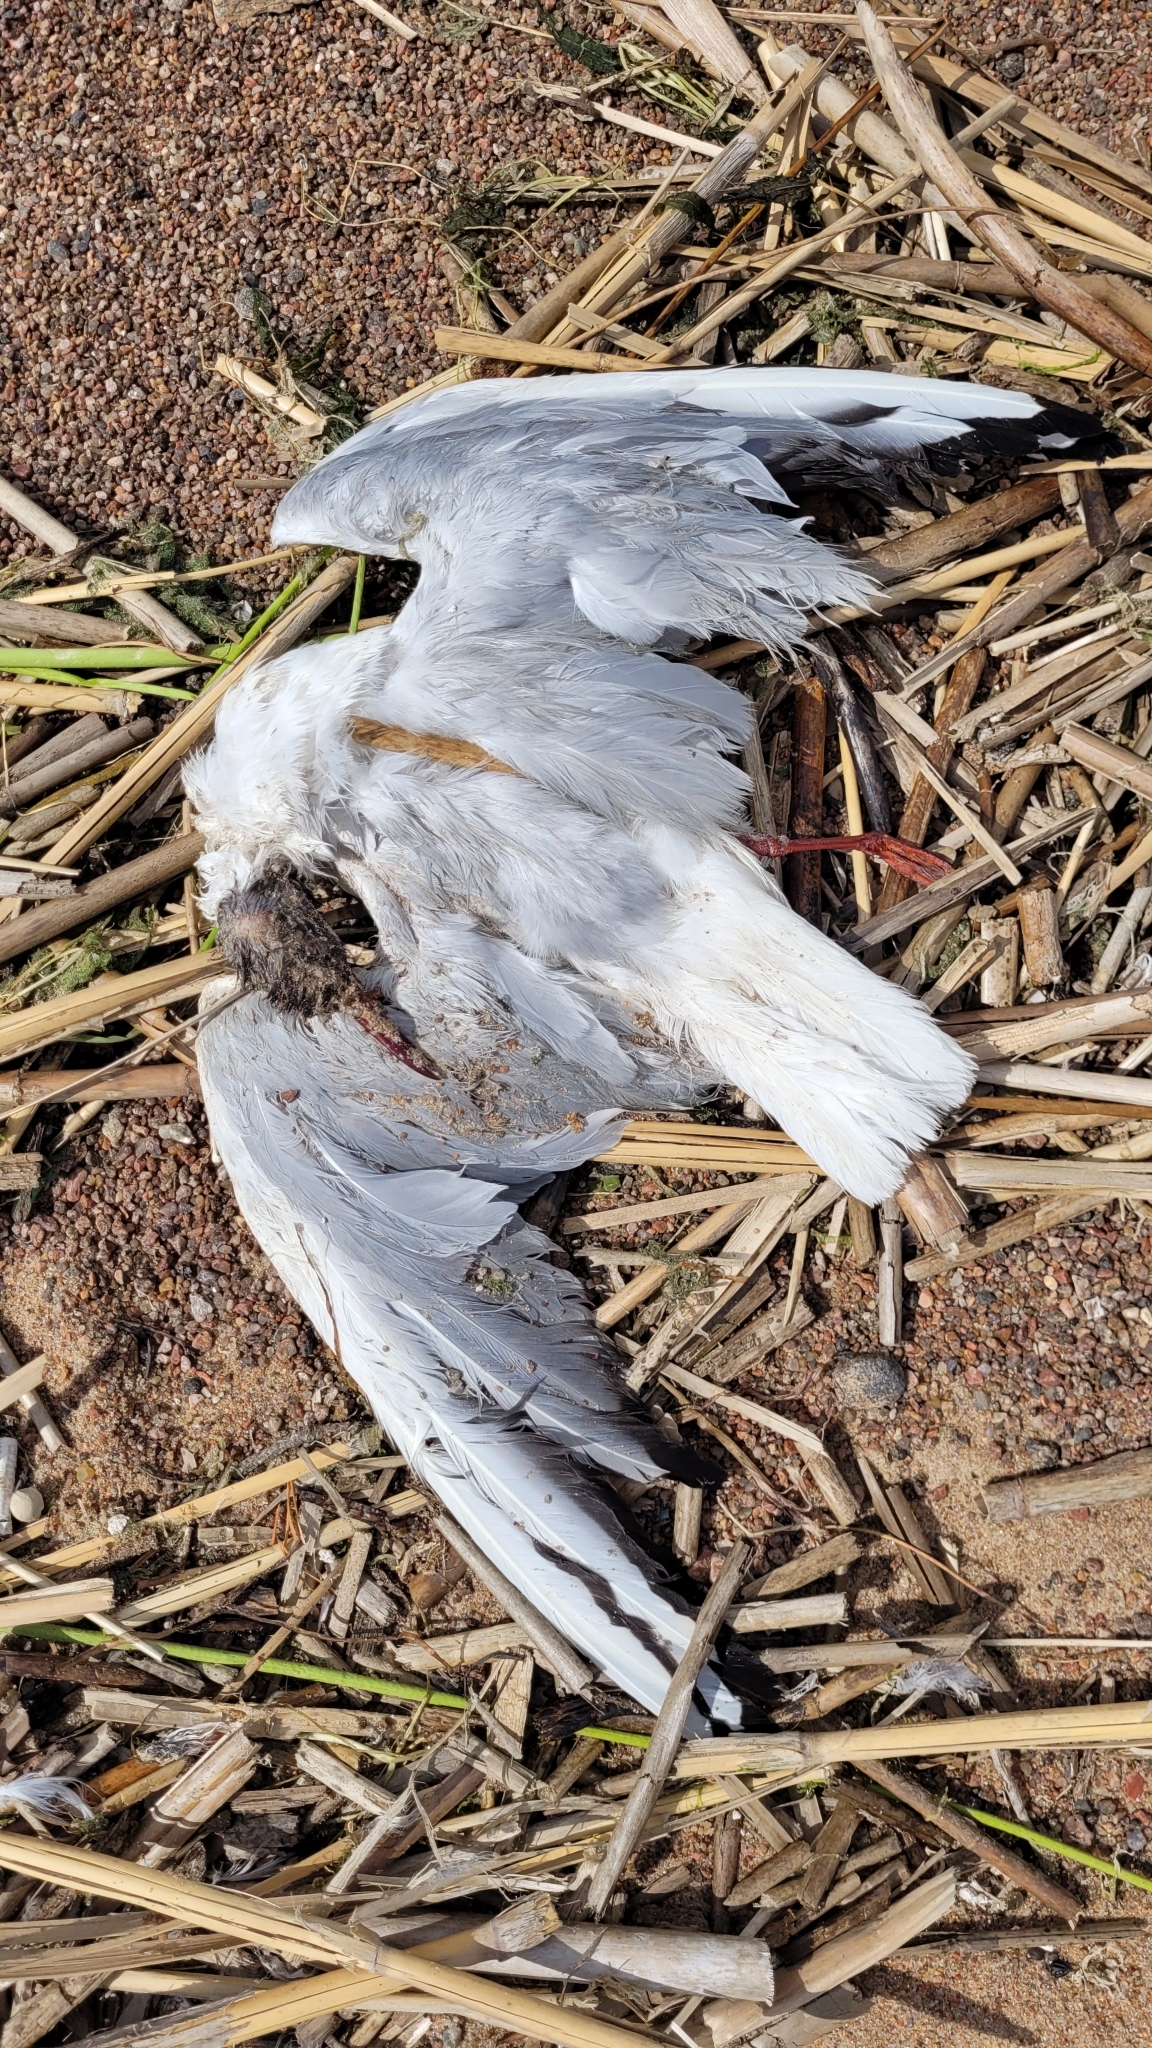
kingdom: Animalia
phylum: Chordata
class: Aves
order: Charadriiformes
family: Laridae
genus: Chroicocephalus
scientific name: Chroicocephalus ridibundus
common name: Black-headed gull
